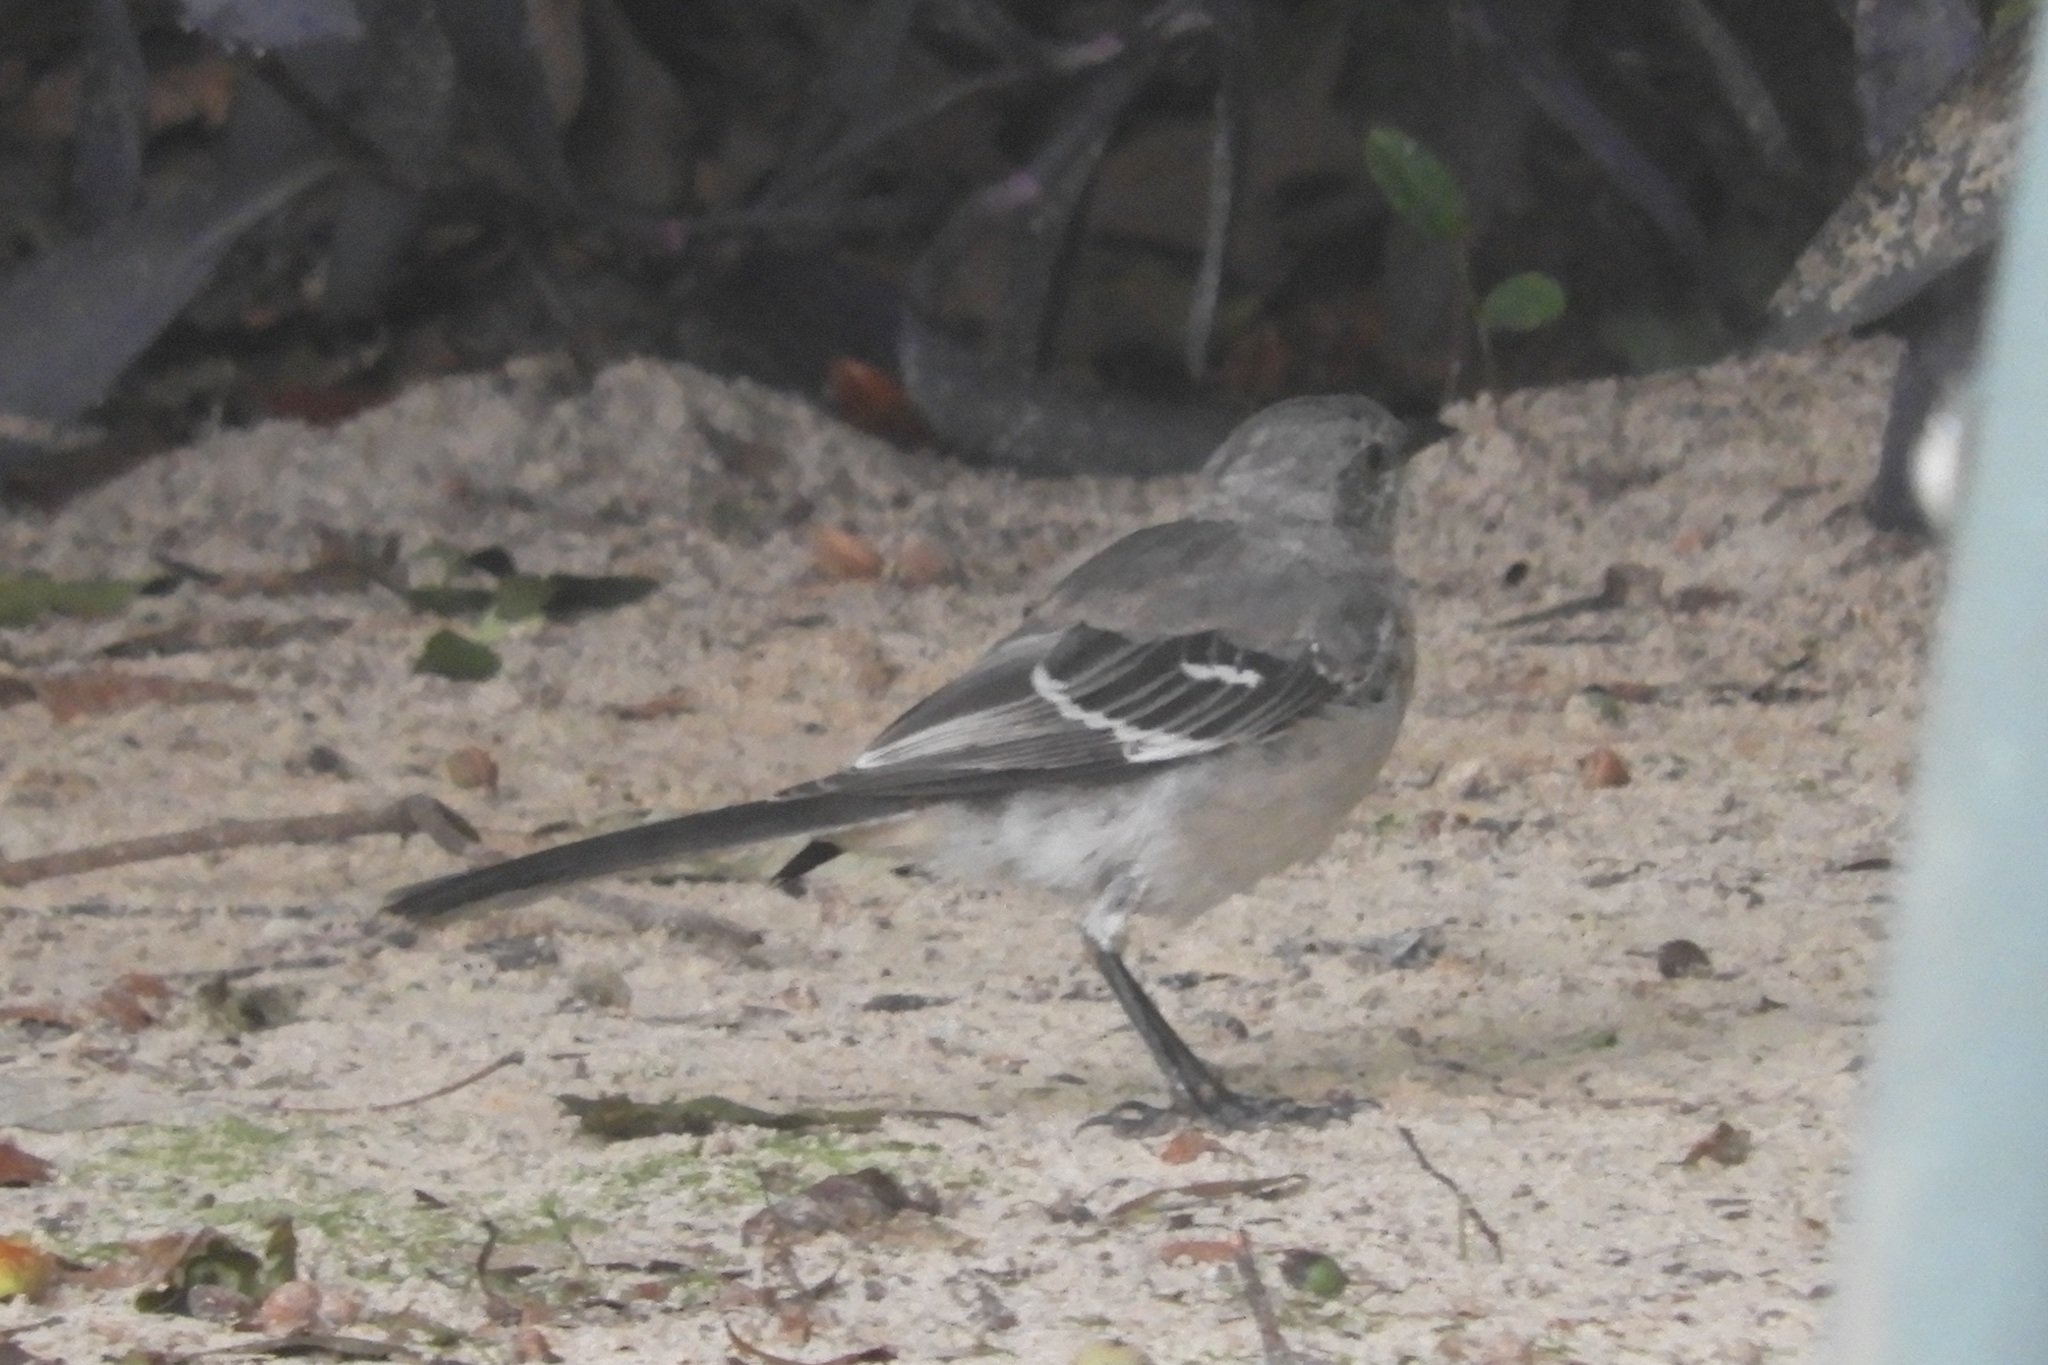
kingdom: Animalia
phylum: Chordata
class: Aves
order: Passeriformes
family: Mimidae
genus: Mimus
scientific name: Mimus polyglottos
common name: Northern mockingbird
